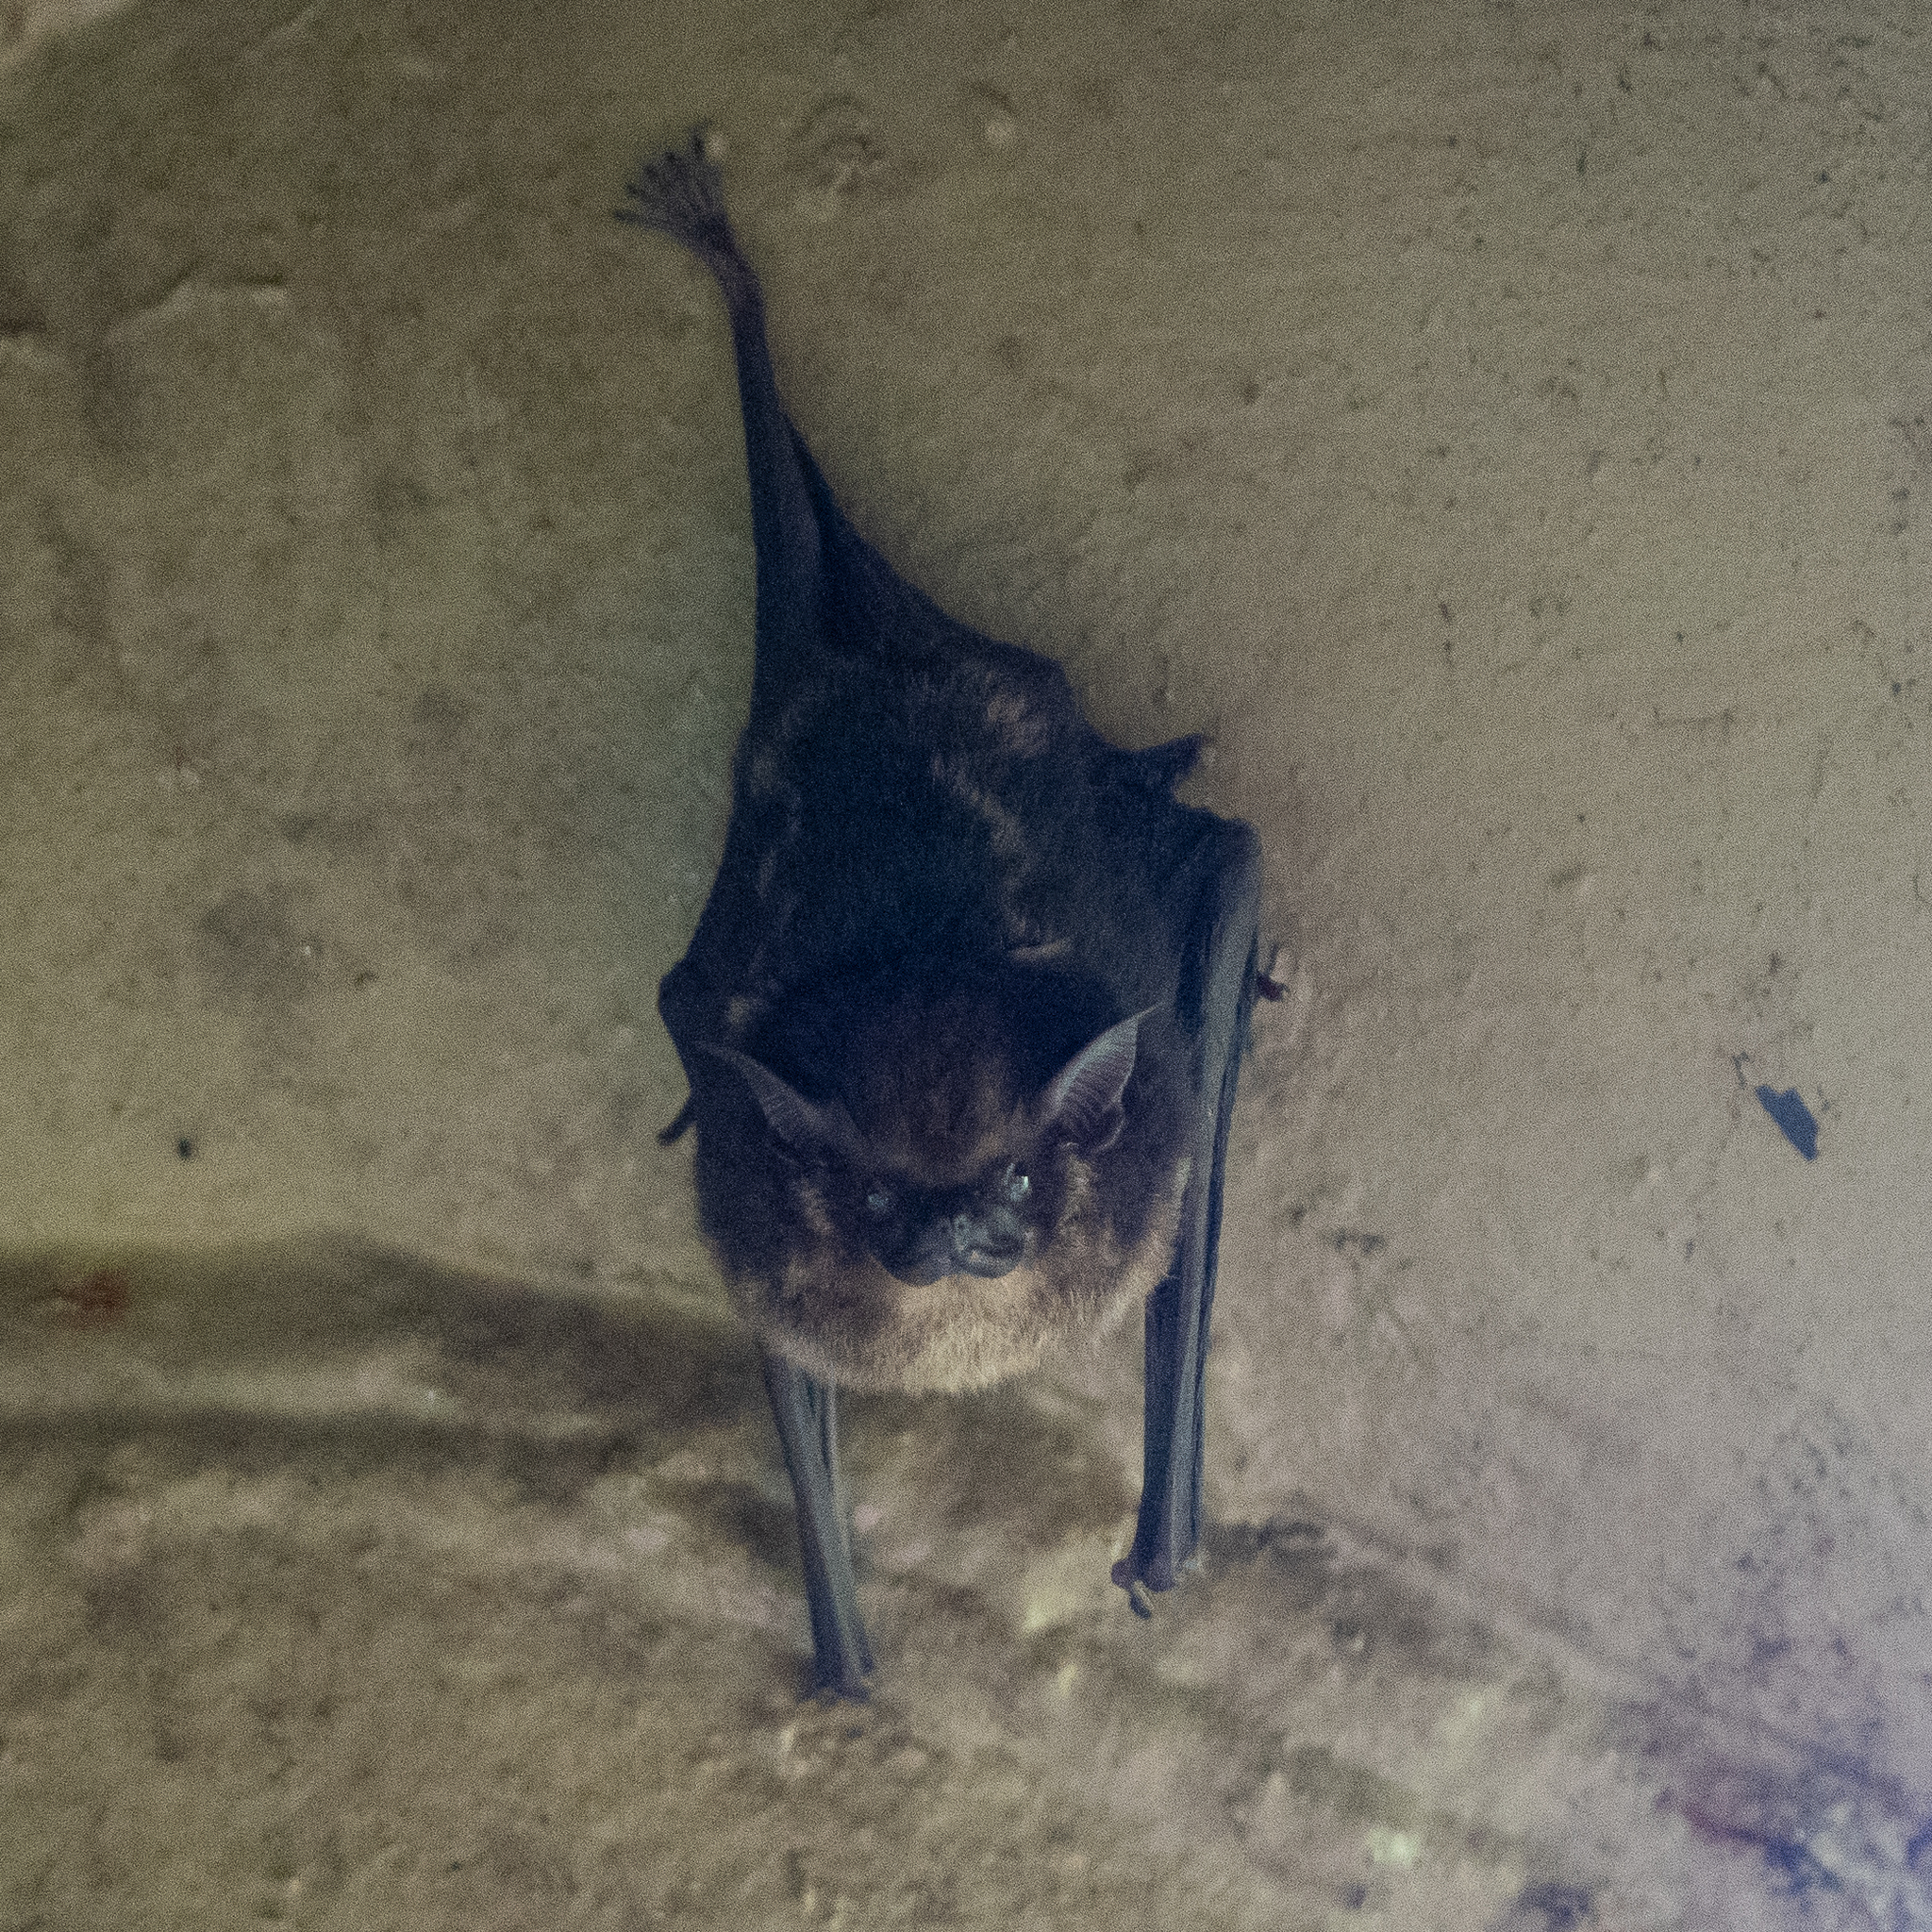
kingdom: Animalia
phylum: Chordata
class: Mammalia
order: Chiroptera
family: Emballonuridae
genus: Saccopteryx
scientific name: Saccopteryx bilineata
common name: Greater sac-winged bat
